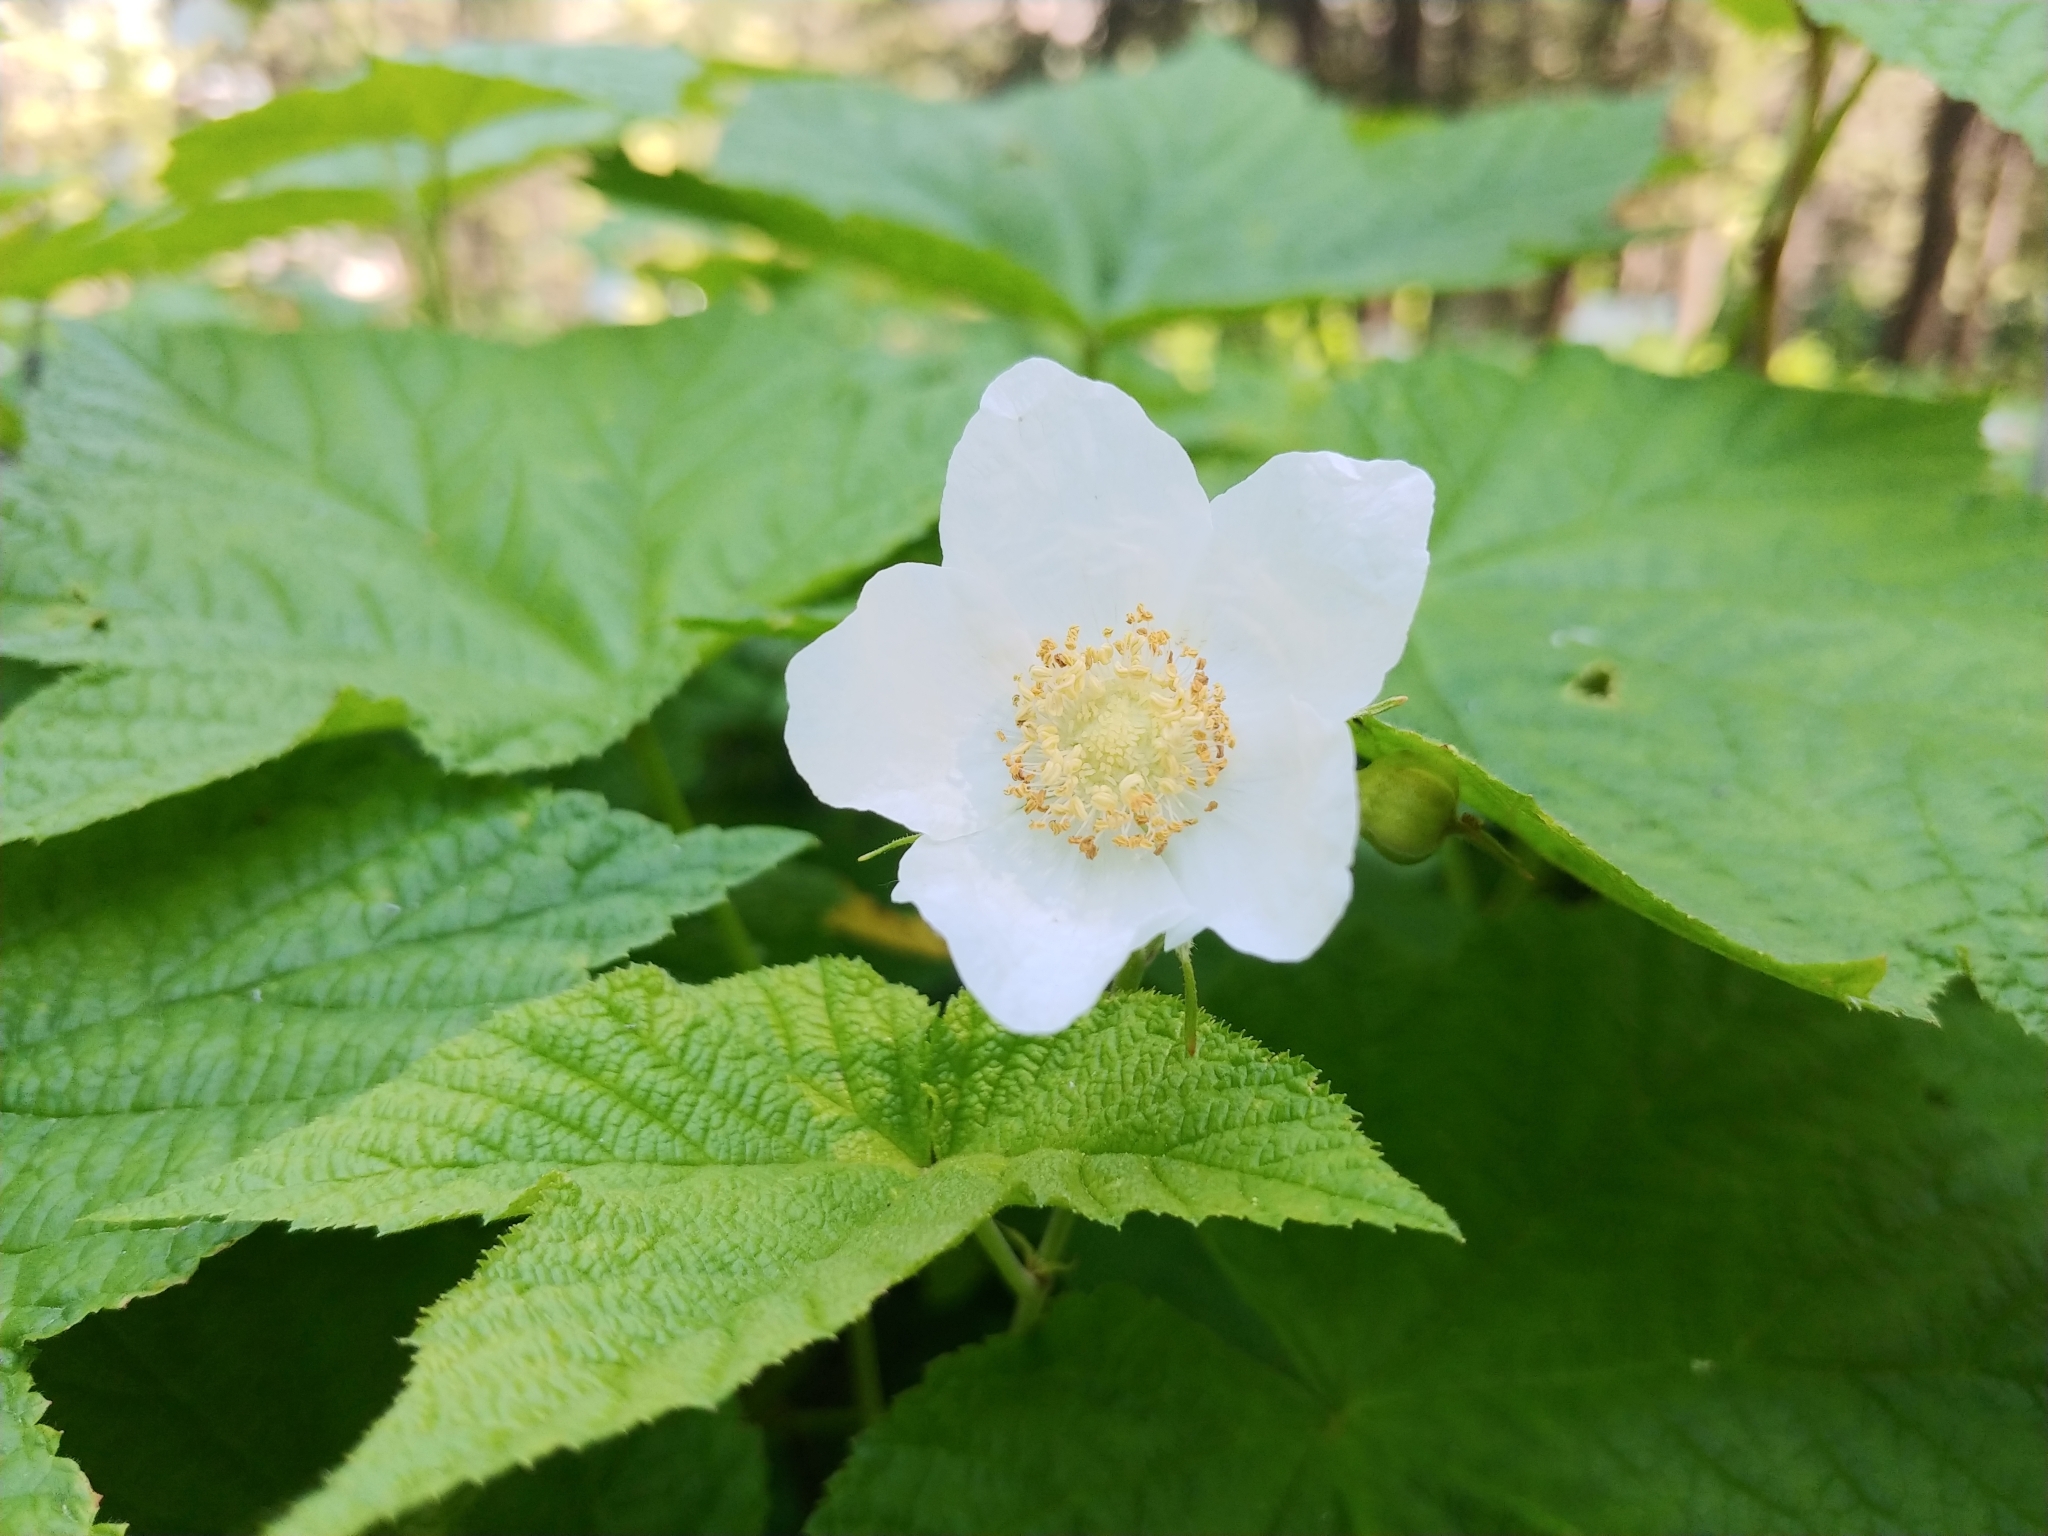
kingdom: Plantae
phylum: Tracheophyta
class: Magnoliopsida
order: Rosales
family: Rosaceae
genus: Rubus
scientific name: Rubus parviflorus
